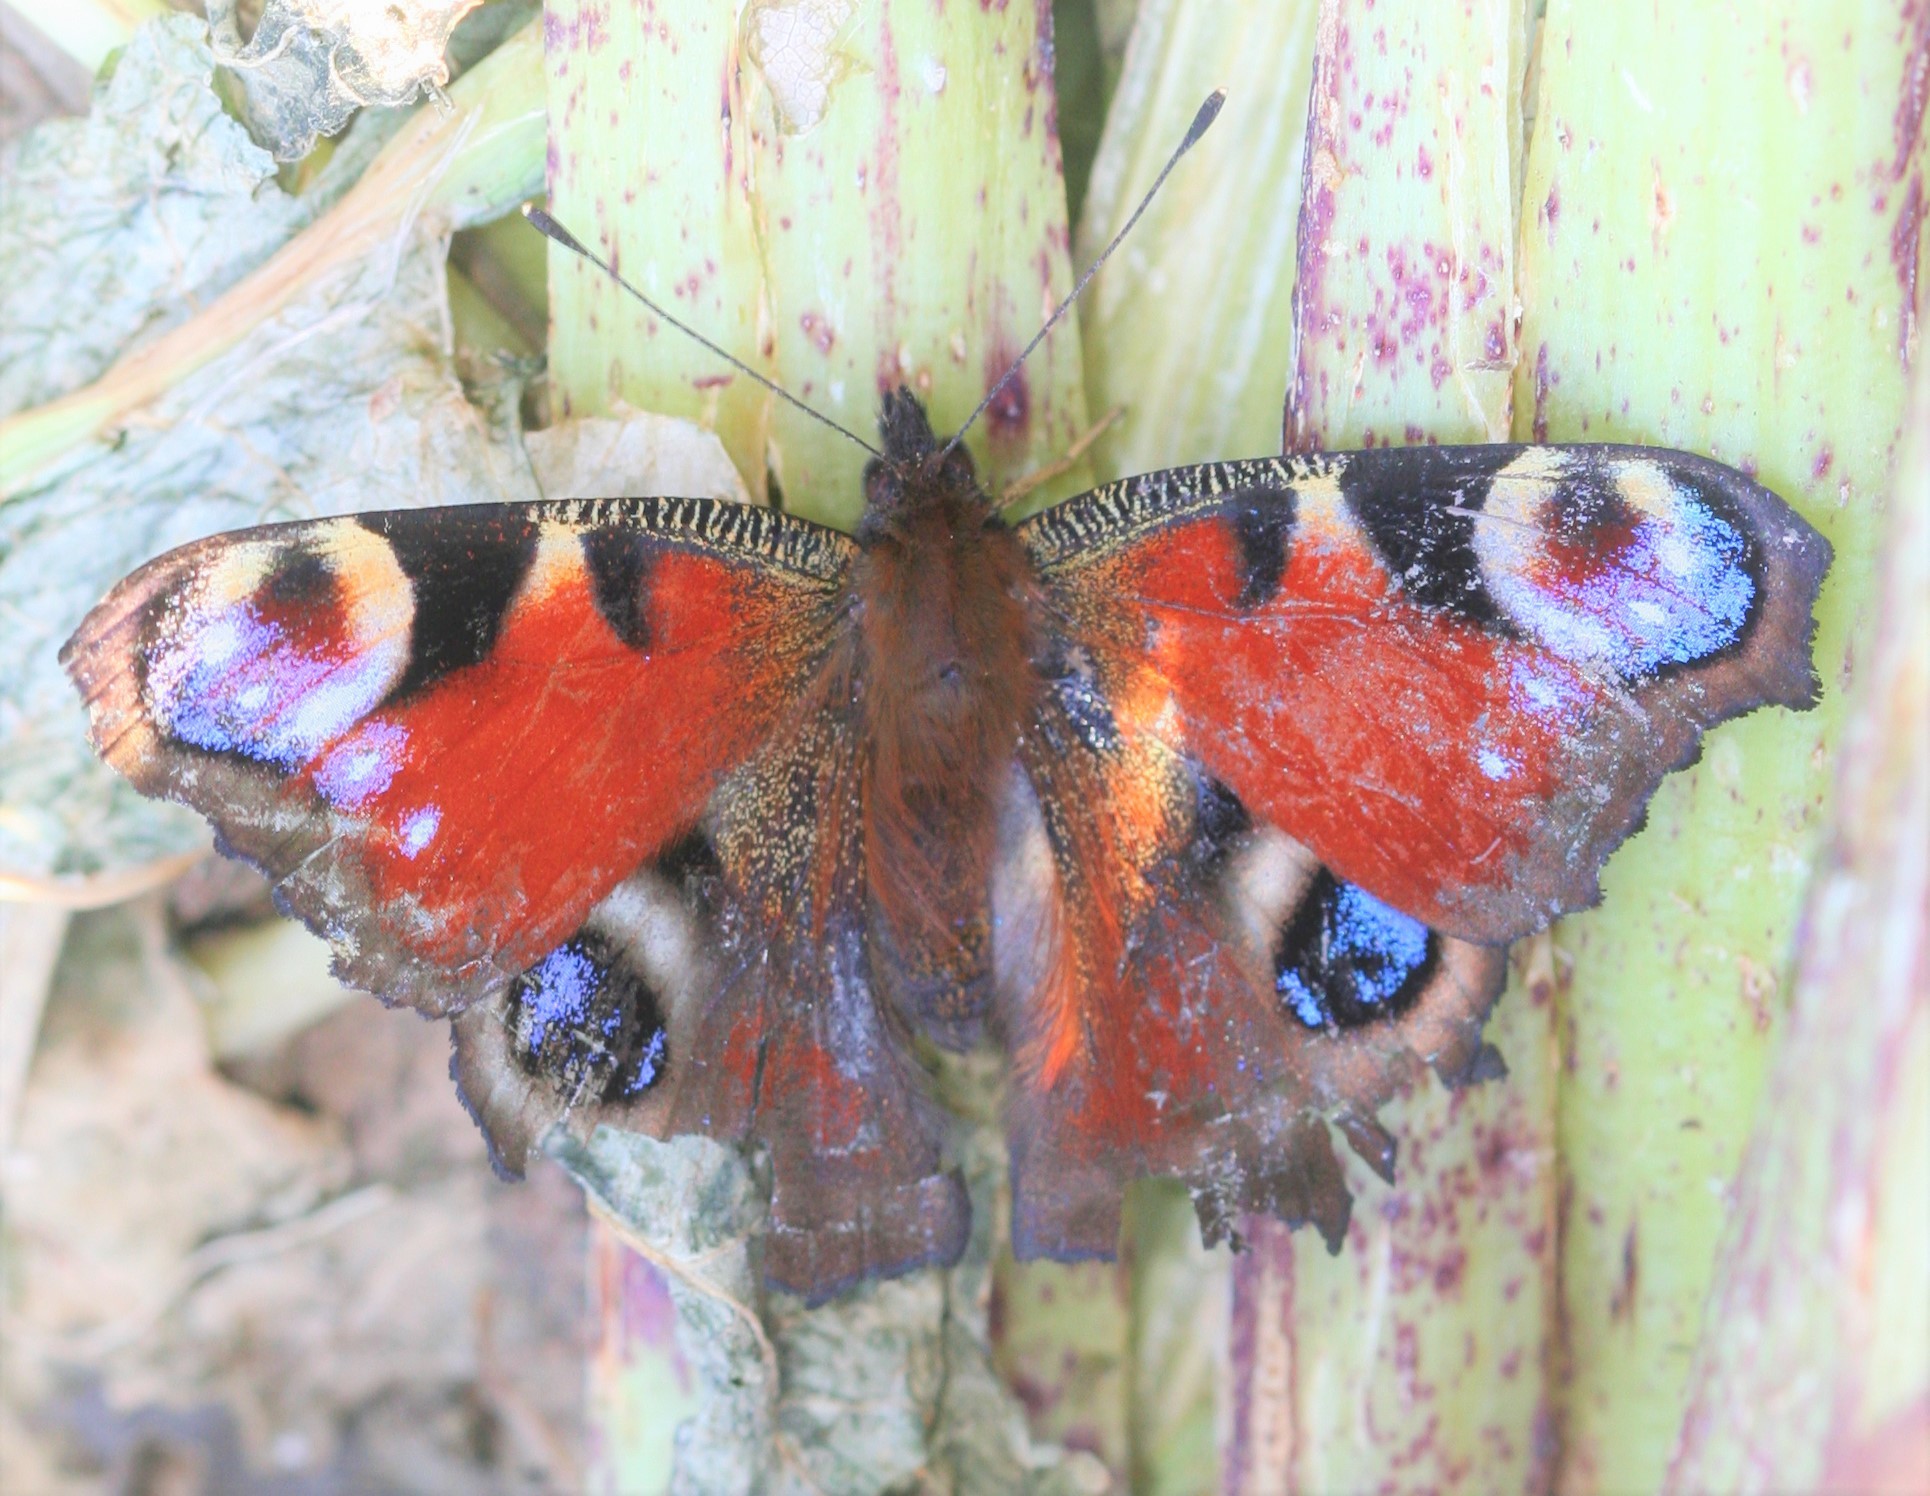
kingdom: Animalia
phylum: Arthropoda
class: Insecta
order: Lepidoptera
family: Nymphalidae
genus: Aglais
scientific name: Aglais io
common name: Peacock
